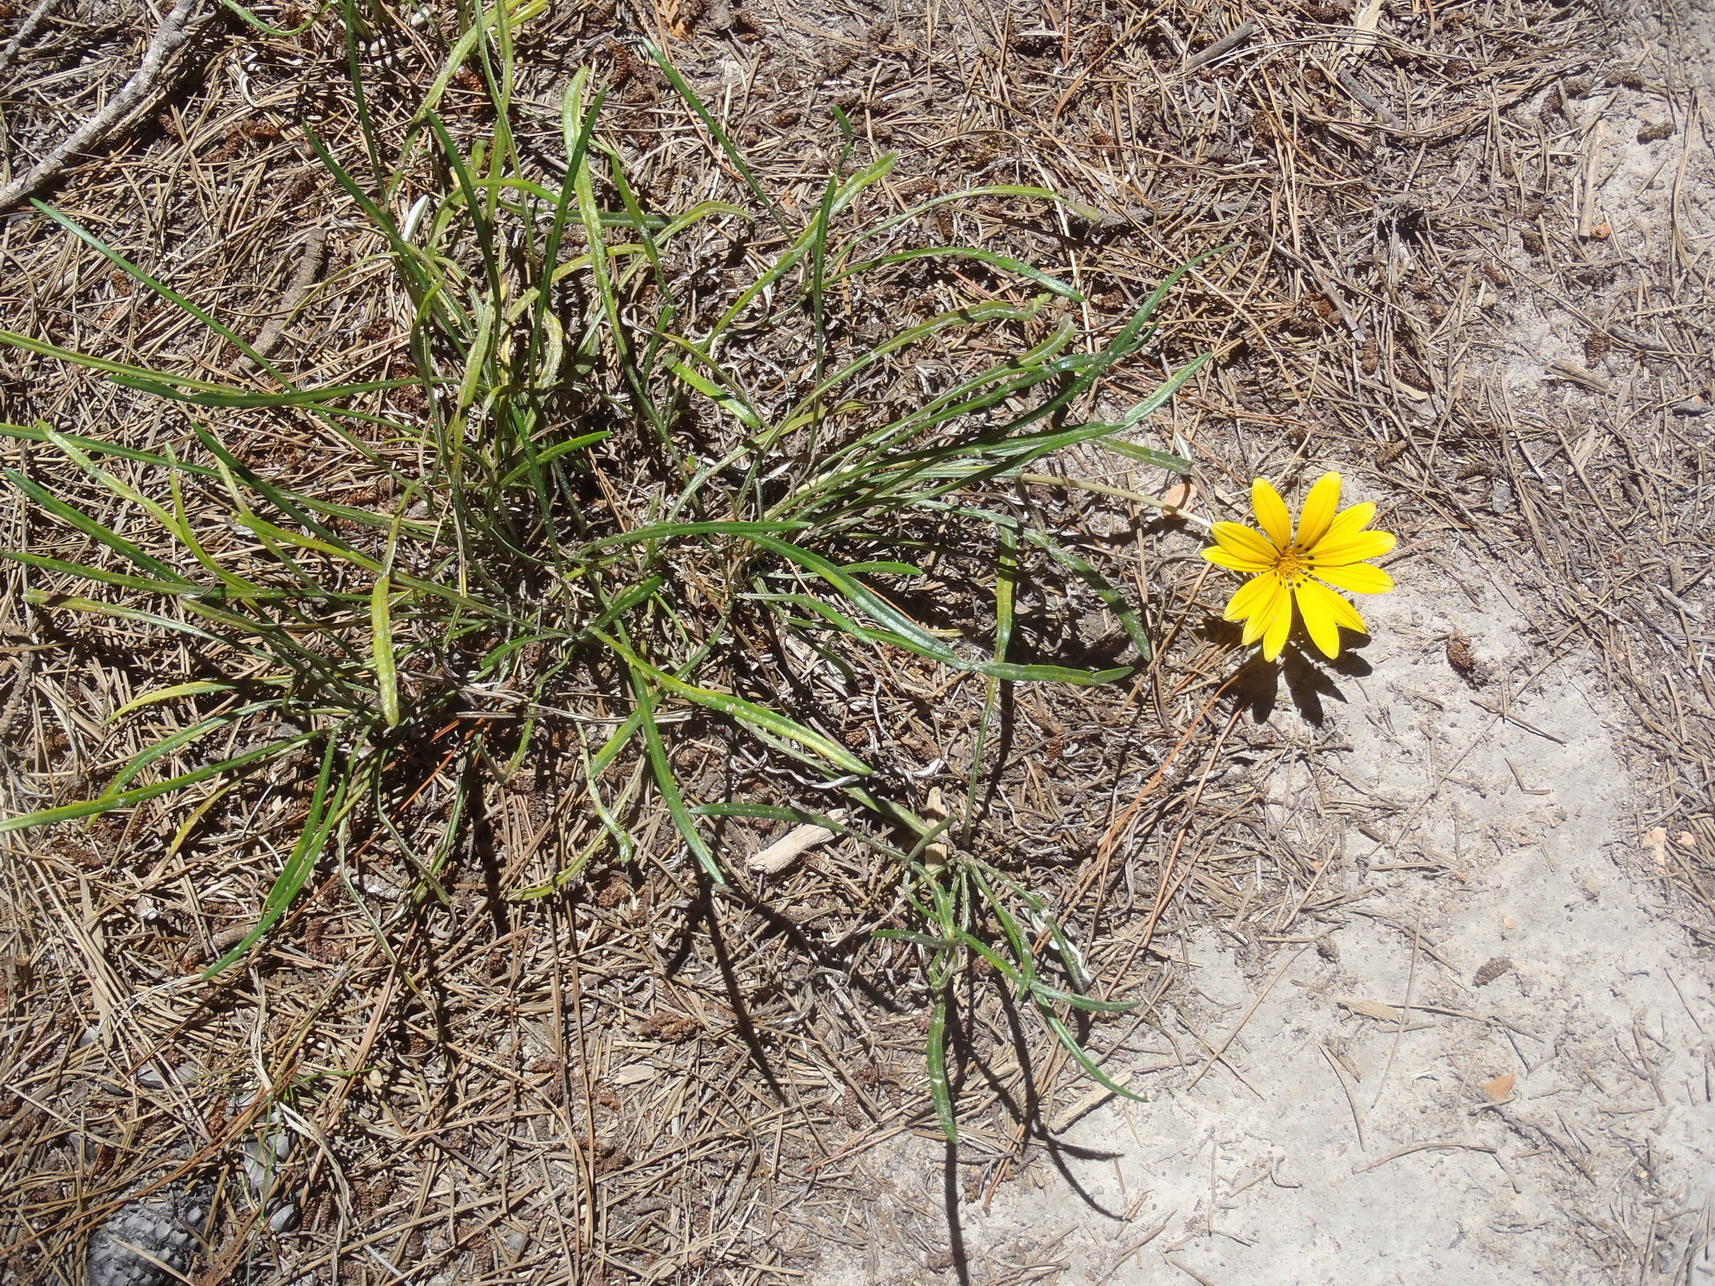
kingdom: Plantae
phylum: Tracheophyta
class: Magnoliopsida
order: Asterales
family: Asteraceae
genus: Gazania
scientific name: Gazania krebsiana
